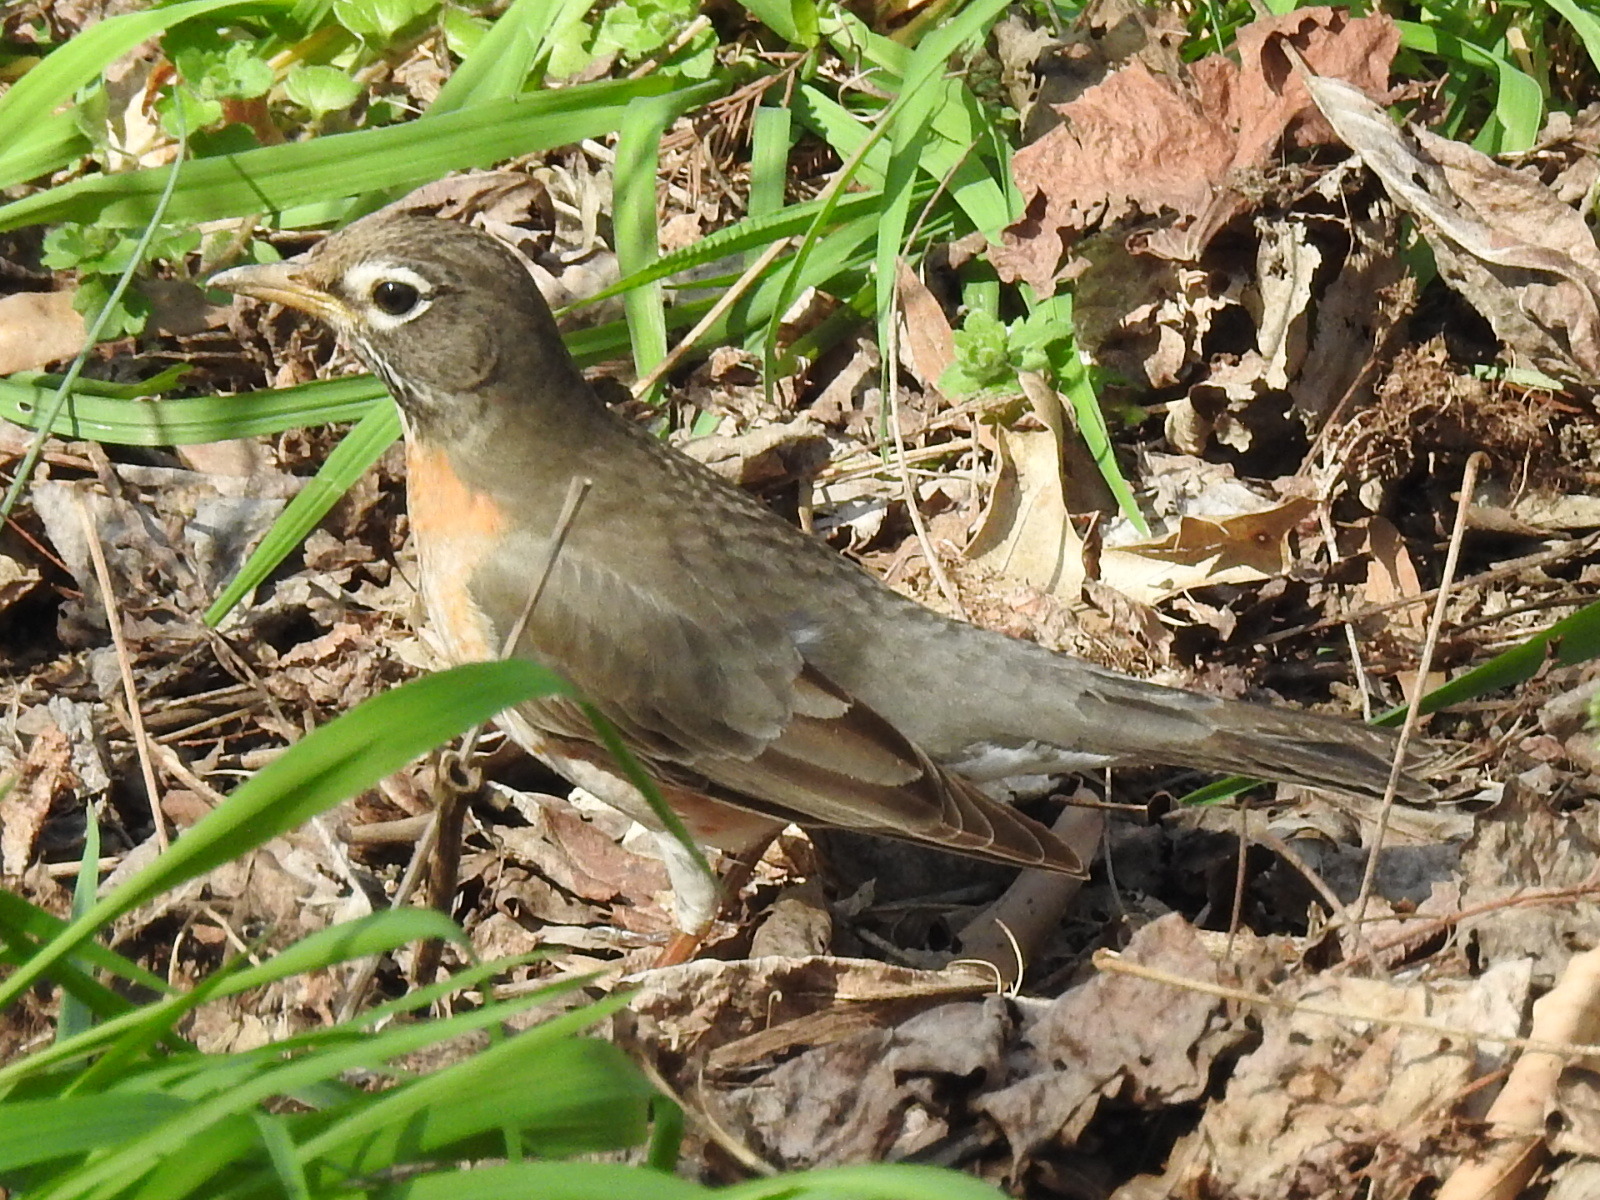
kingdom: Animalia
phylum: Chordata
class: Aves
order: Passeriformes
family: Turdidae
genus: Turdus
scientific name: Turdus migratorius
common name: American robin
